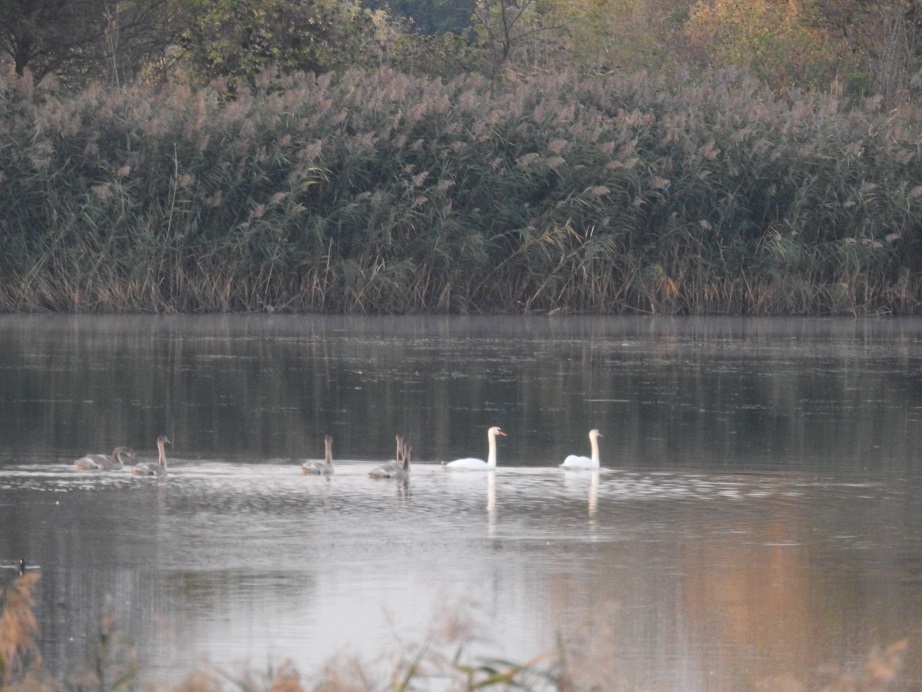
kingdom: Animalia
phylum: Chordata
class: Aves
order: Anseriformes
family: Anatidae
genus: Cygnus
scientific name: Cygnus olor
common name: Mute swan
